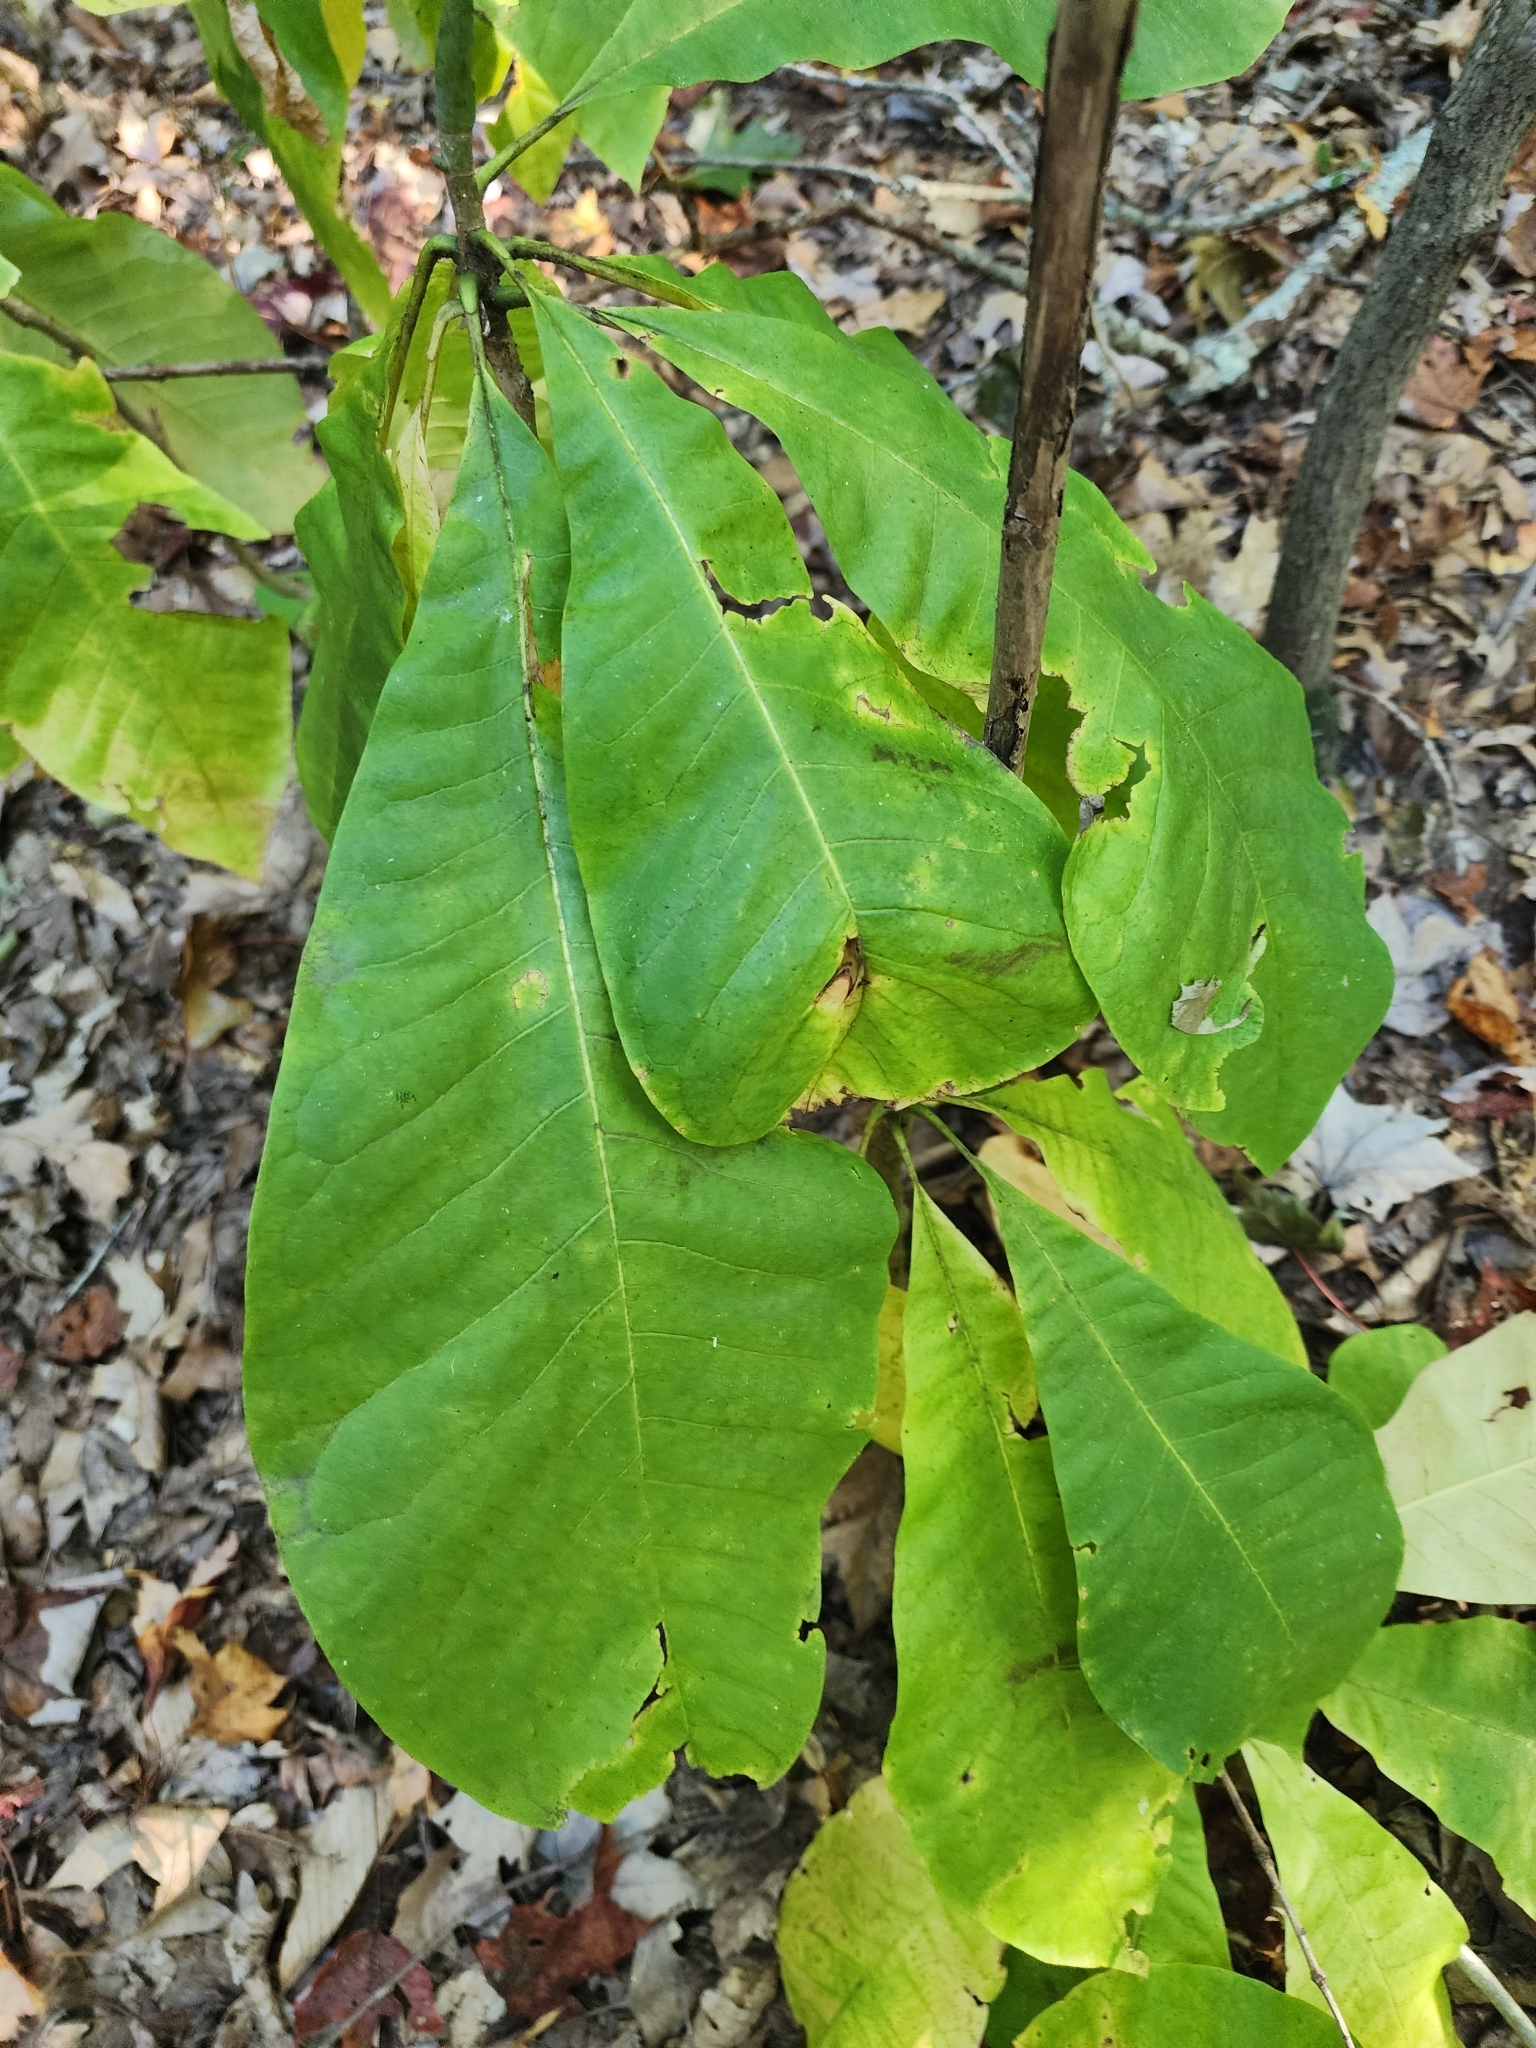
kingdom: Plantae
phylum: Tracheophyta
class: Magnoliopsida
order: Magnoliales
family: Magnoliaceae
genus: Magnolia
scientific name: Magnolia tripetala
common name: Umbrella magnolia
